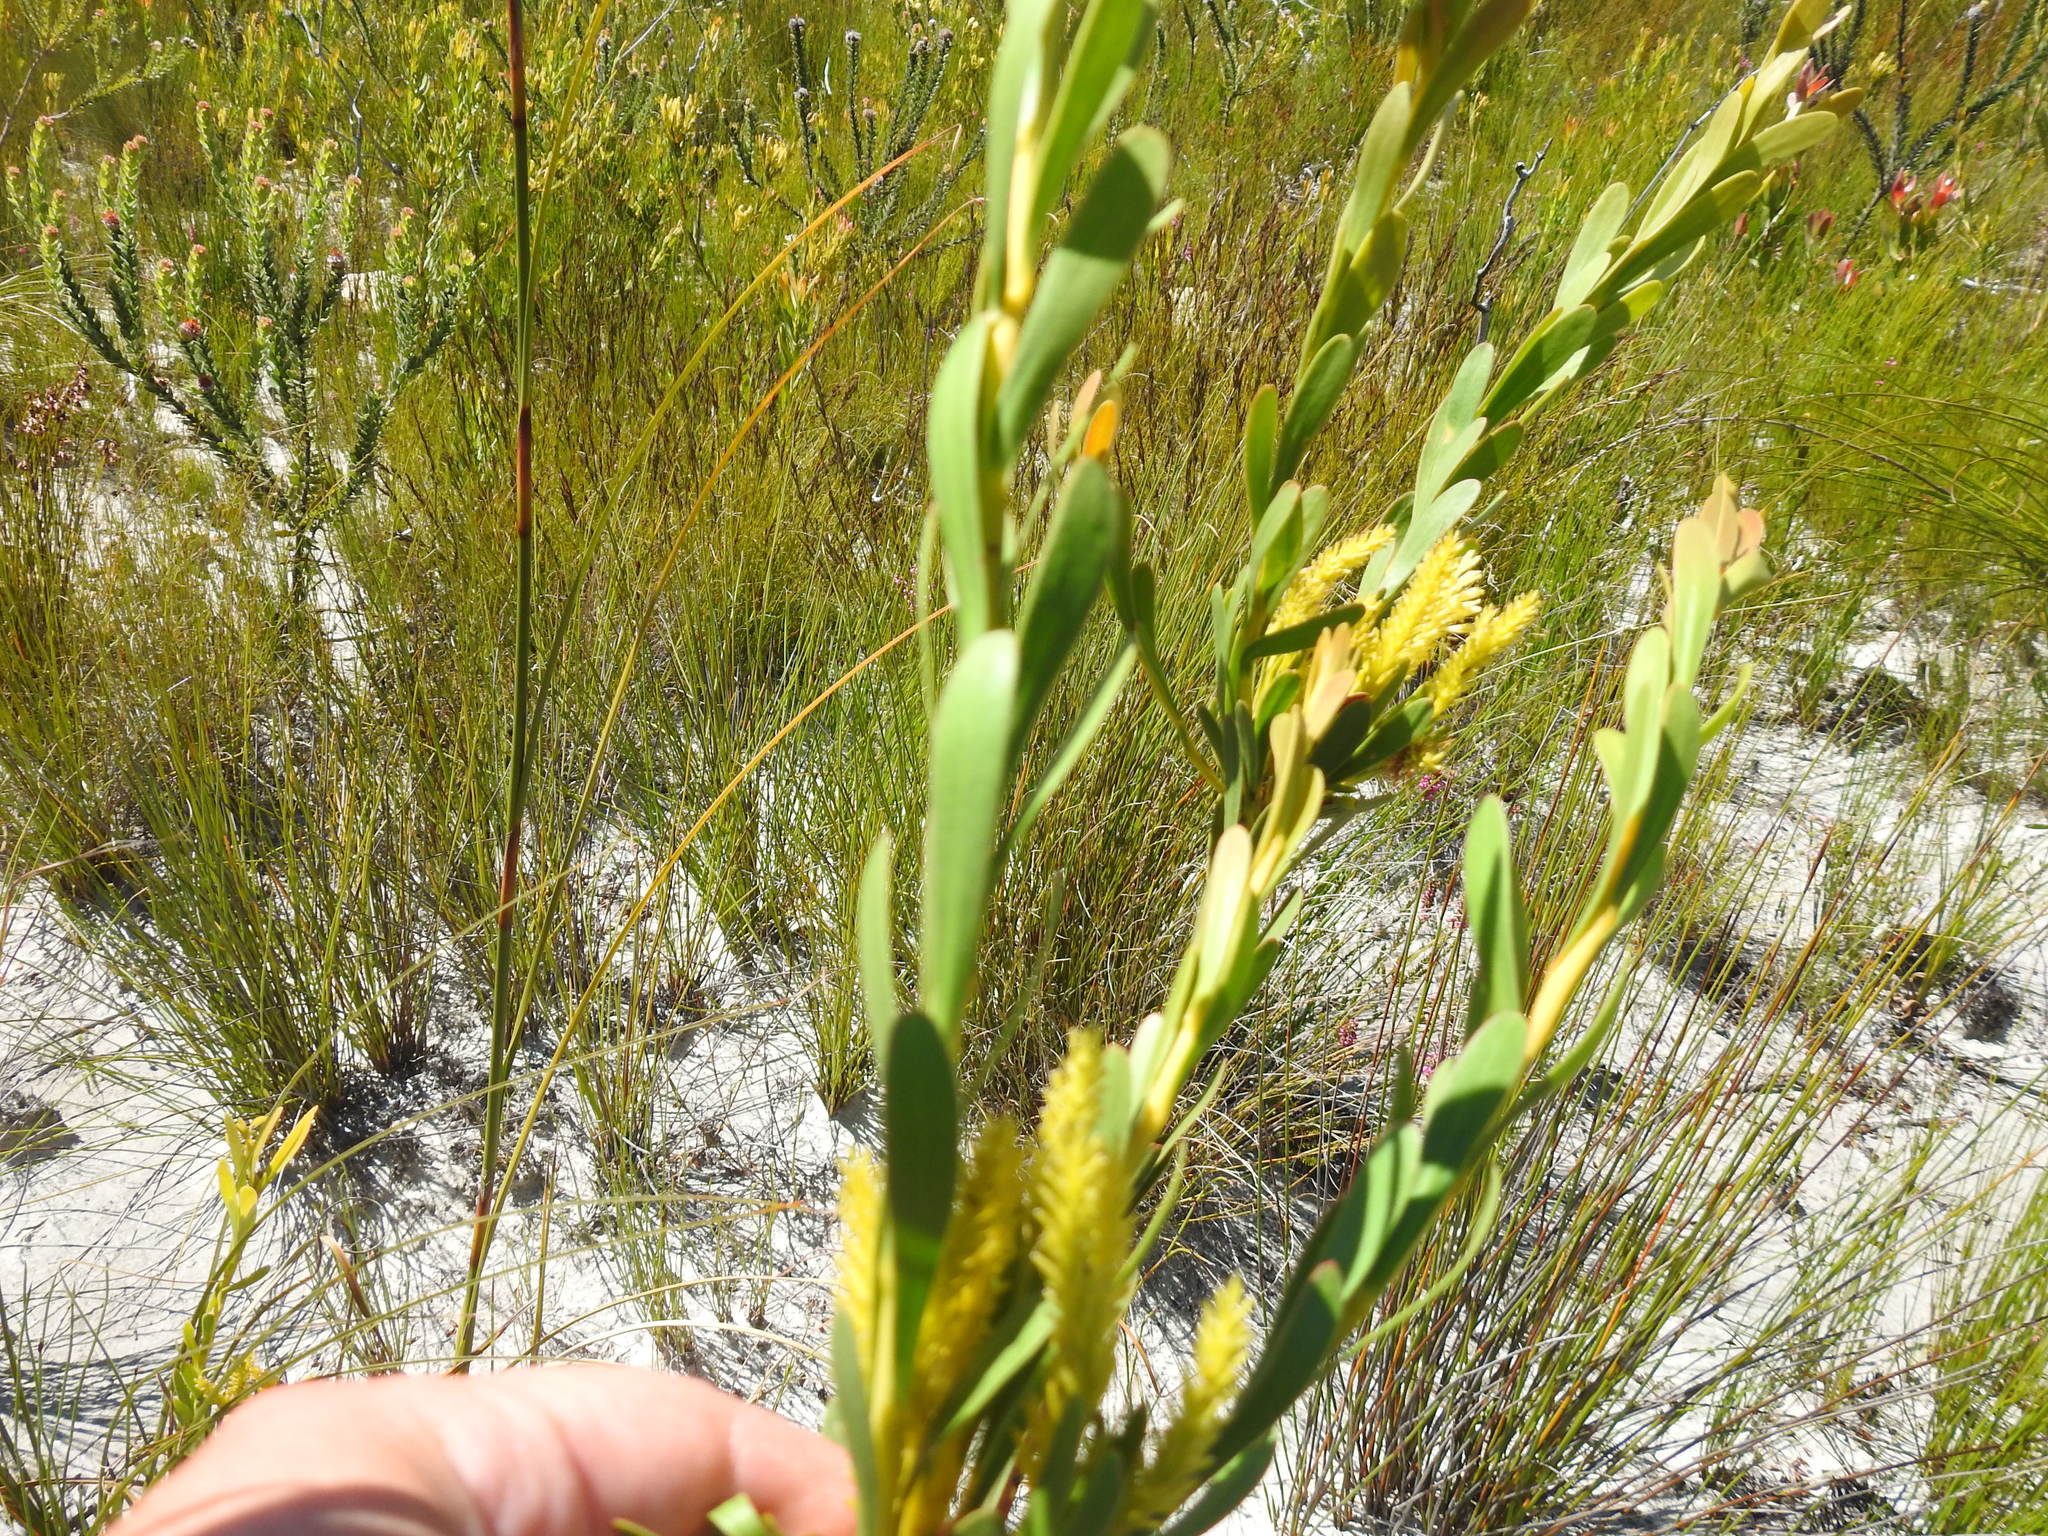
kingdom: Plantae
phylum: Tracheophyta
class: Magnoliopsida
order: Proteales
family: Proteaceae
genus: Aulax
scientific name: Aulax umbellata
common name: Broad-leaf featherbush
